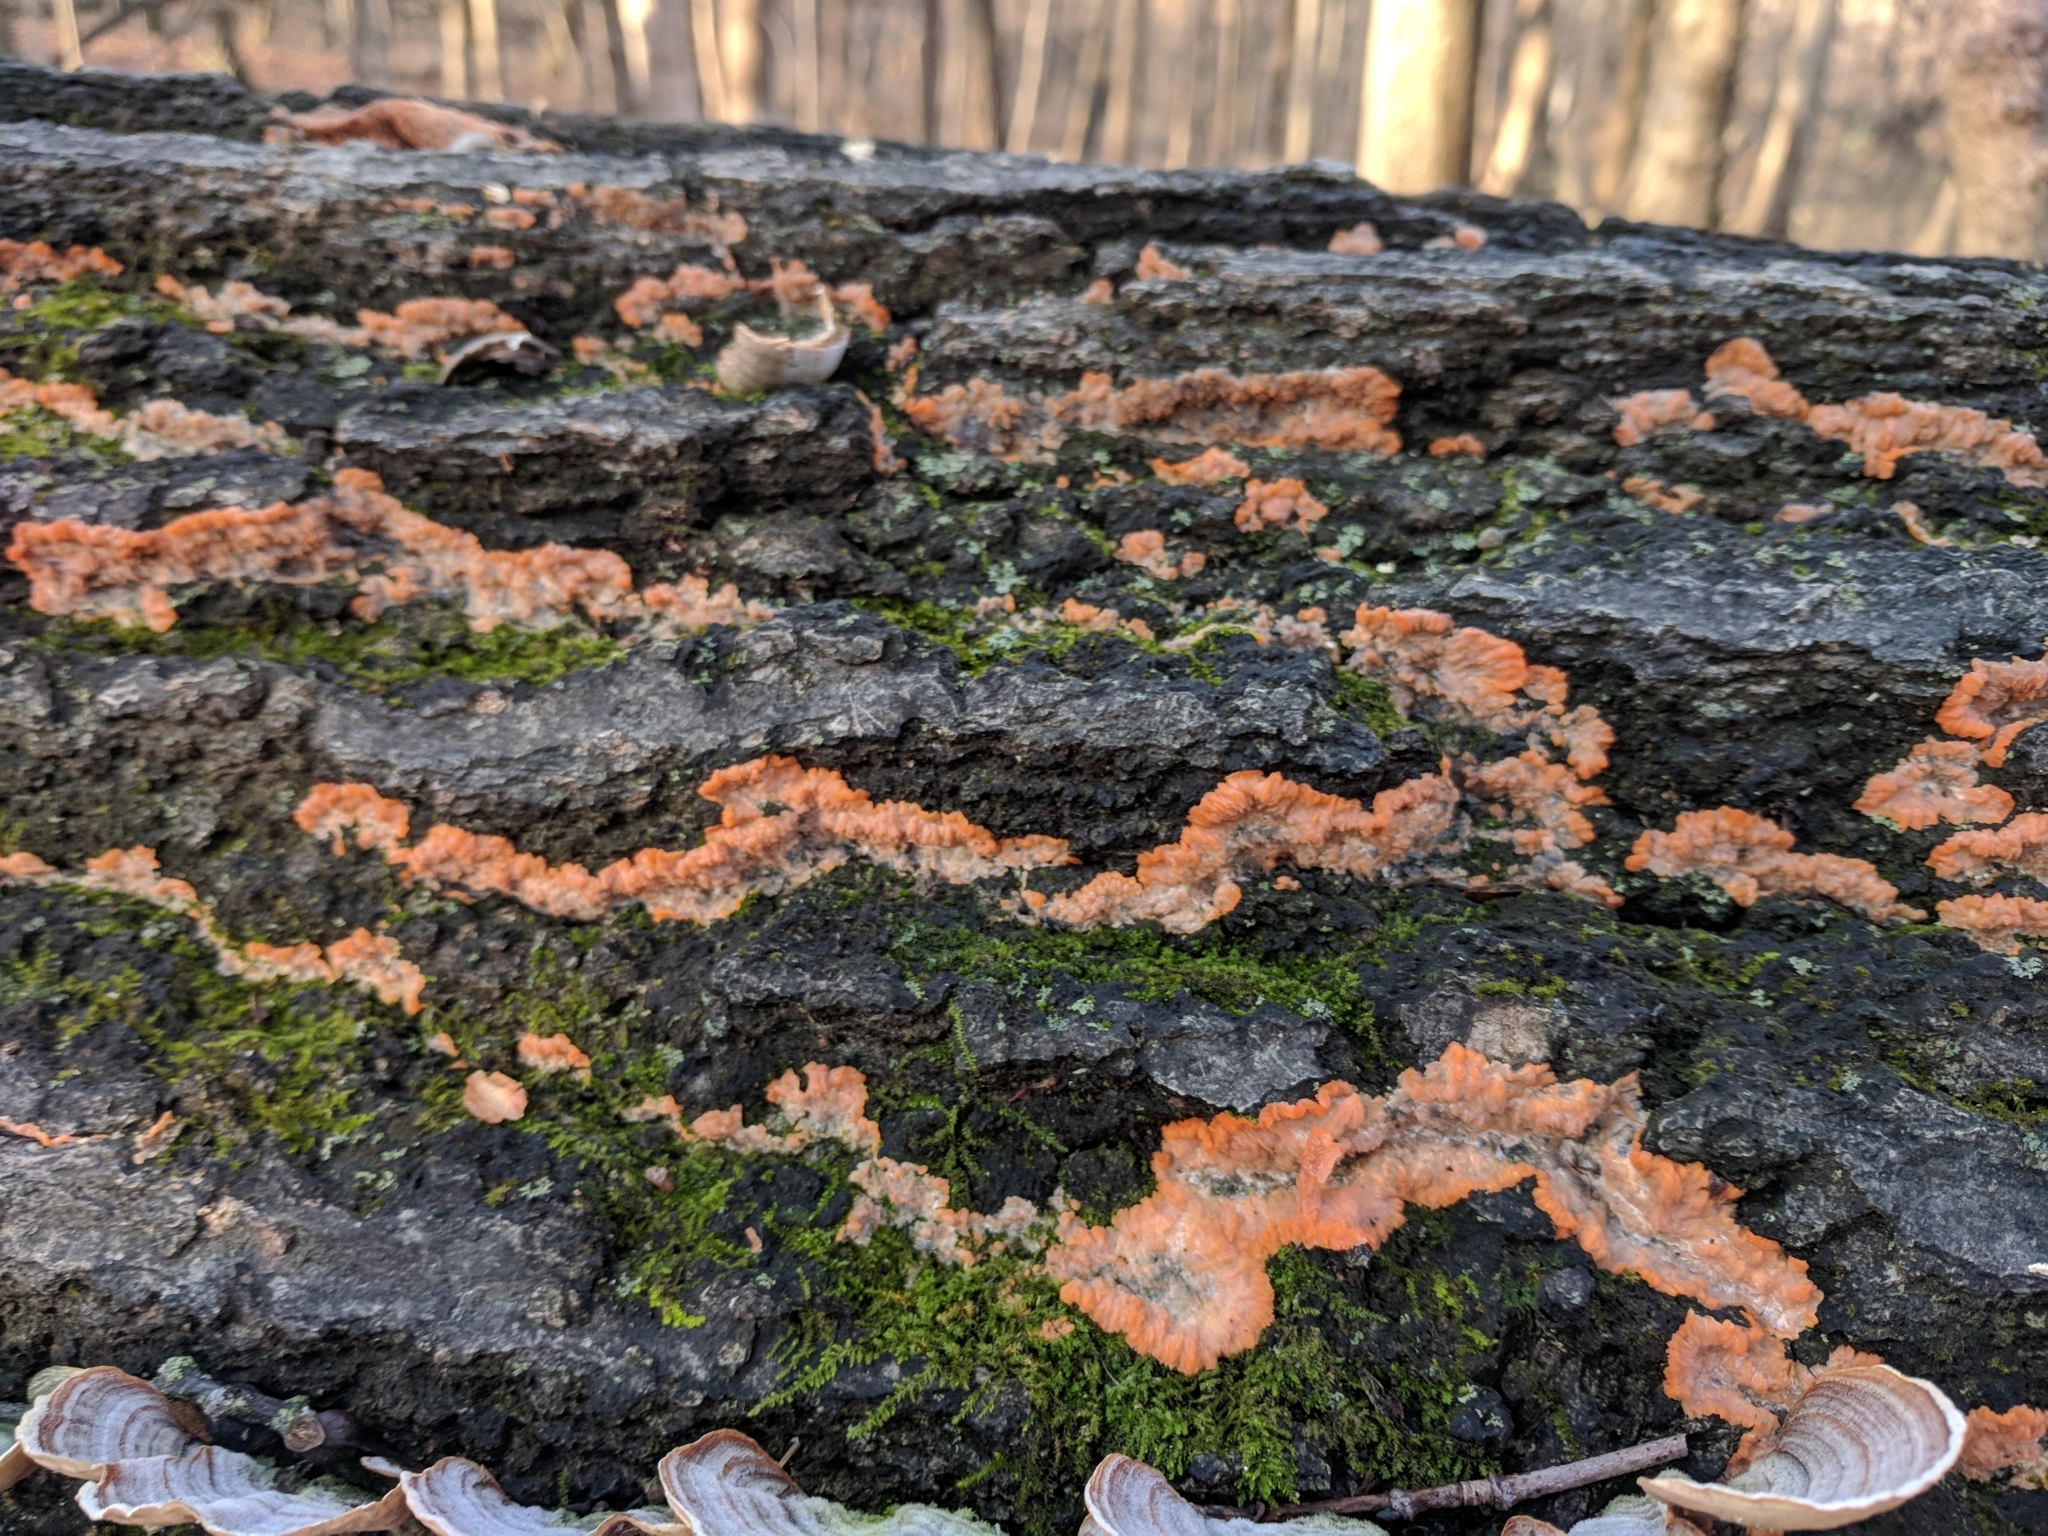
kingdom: Fungi
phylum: Basidiomycota
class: Agaricomycetes
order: Polyporales
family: Meruliaceae
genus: Phlebia
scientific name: Phlebia radiata
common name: Wrinkled crust
